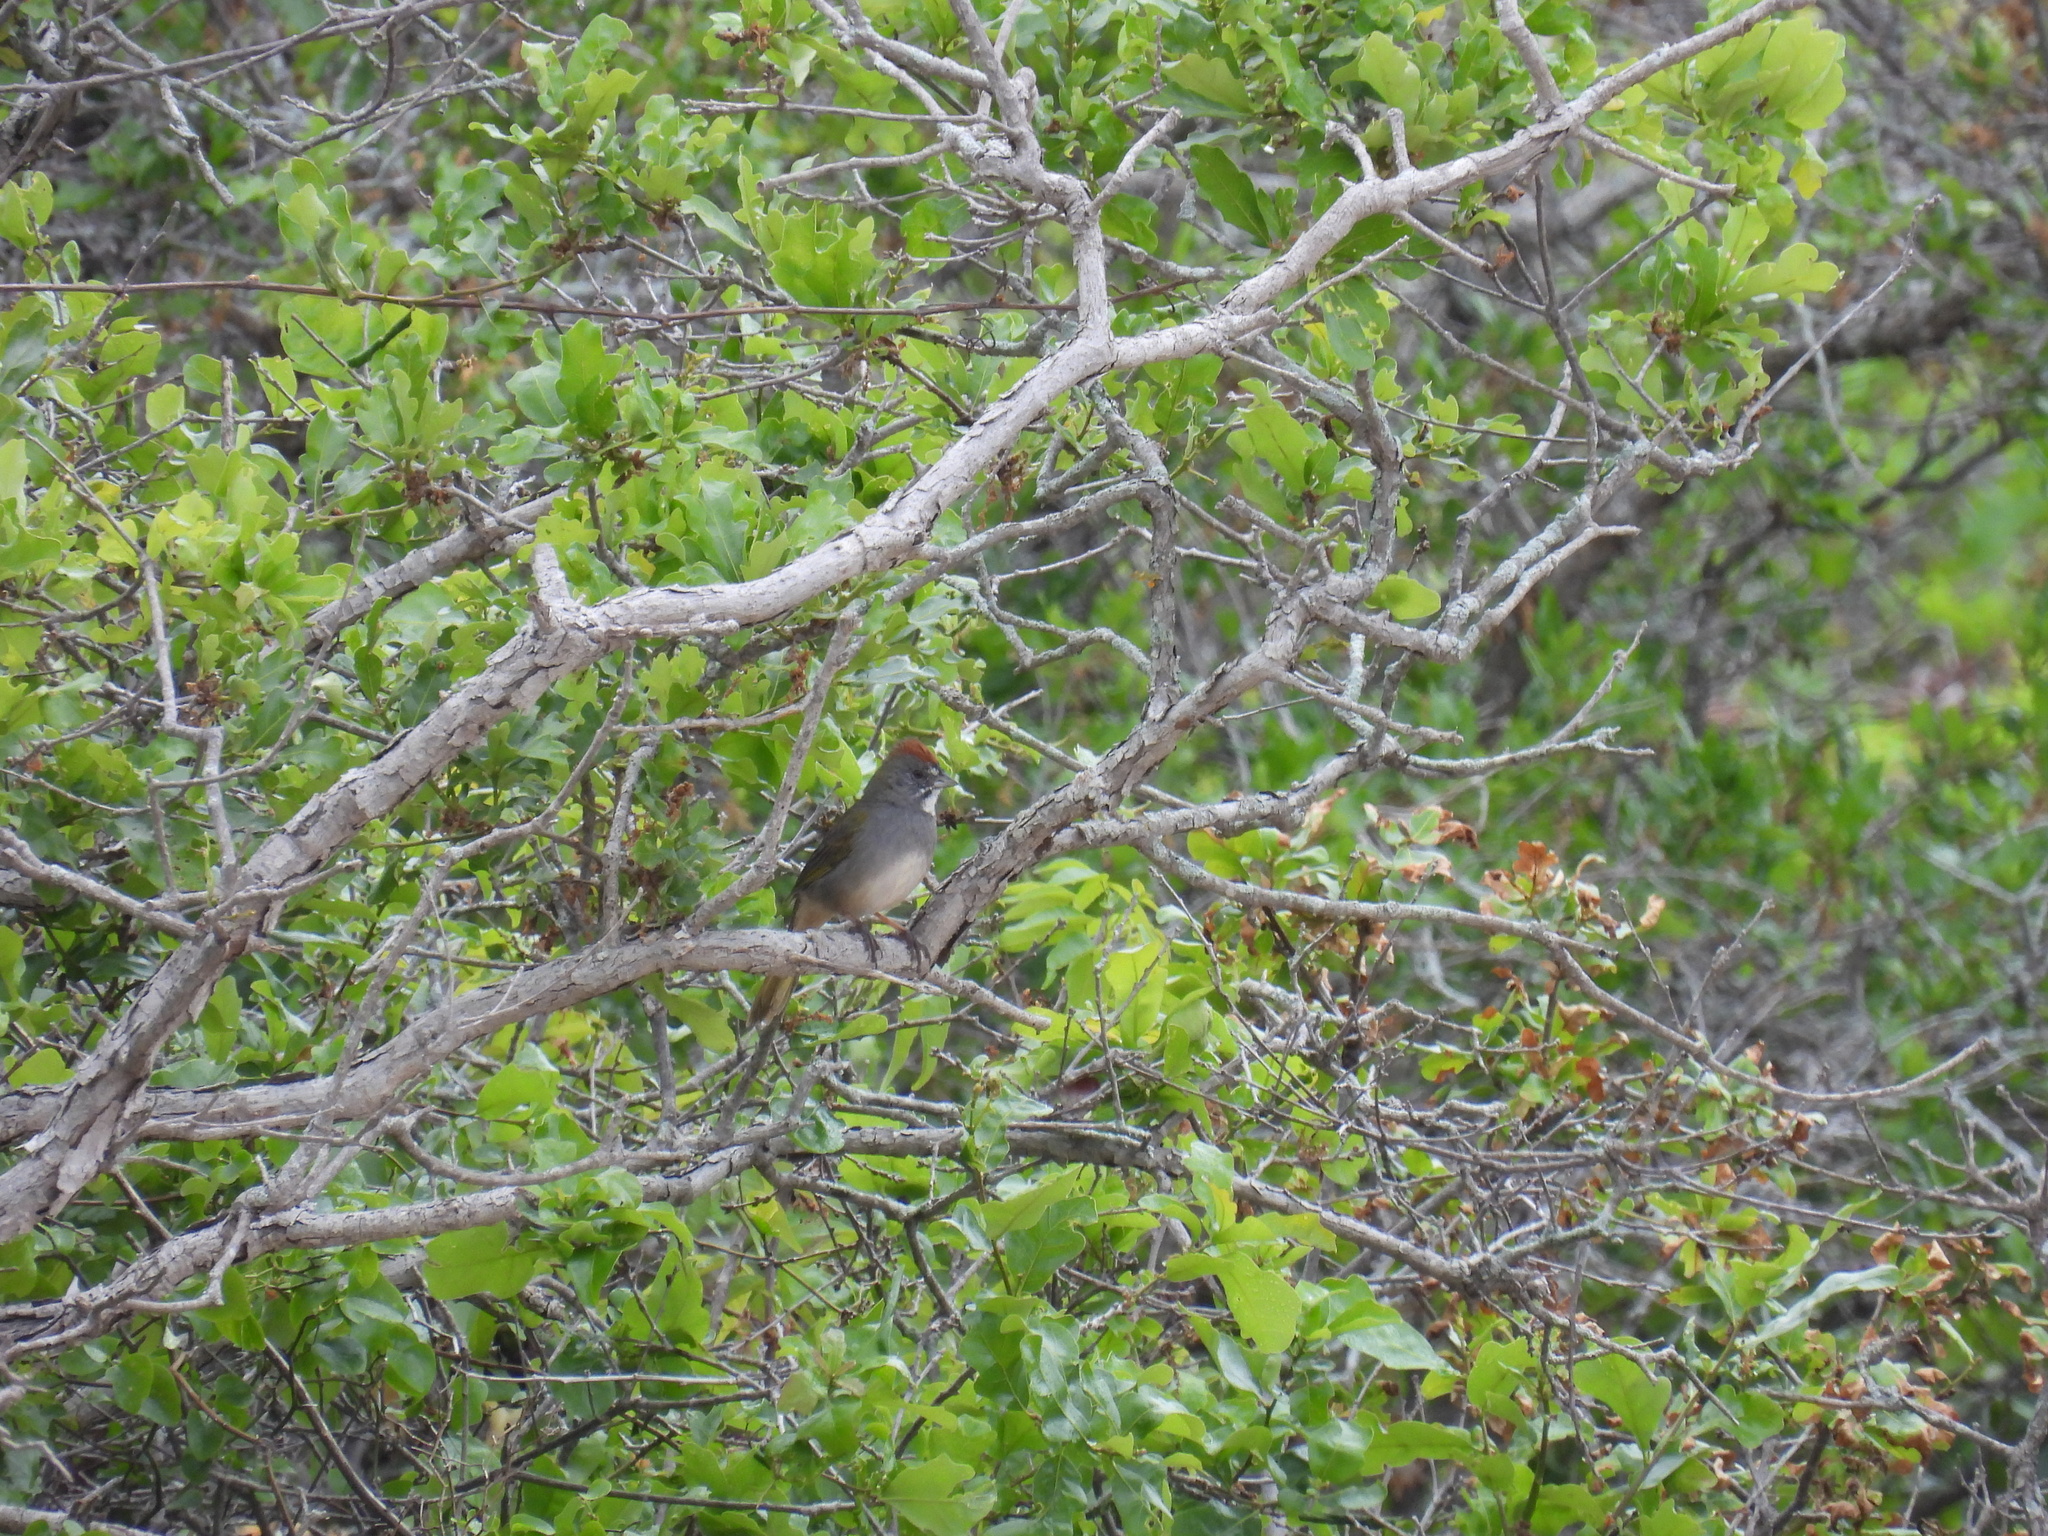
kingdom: Animalia
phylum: Chordata
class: Aves
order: Passeriformes
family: Passerellidae
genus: Pipilo
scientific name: Pipilo chlorurus
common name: Green-tailed towhee
